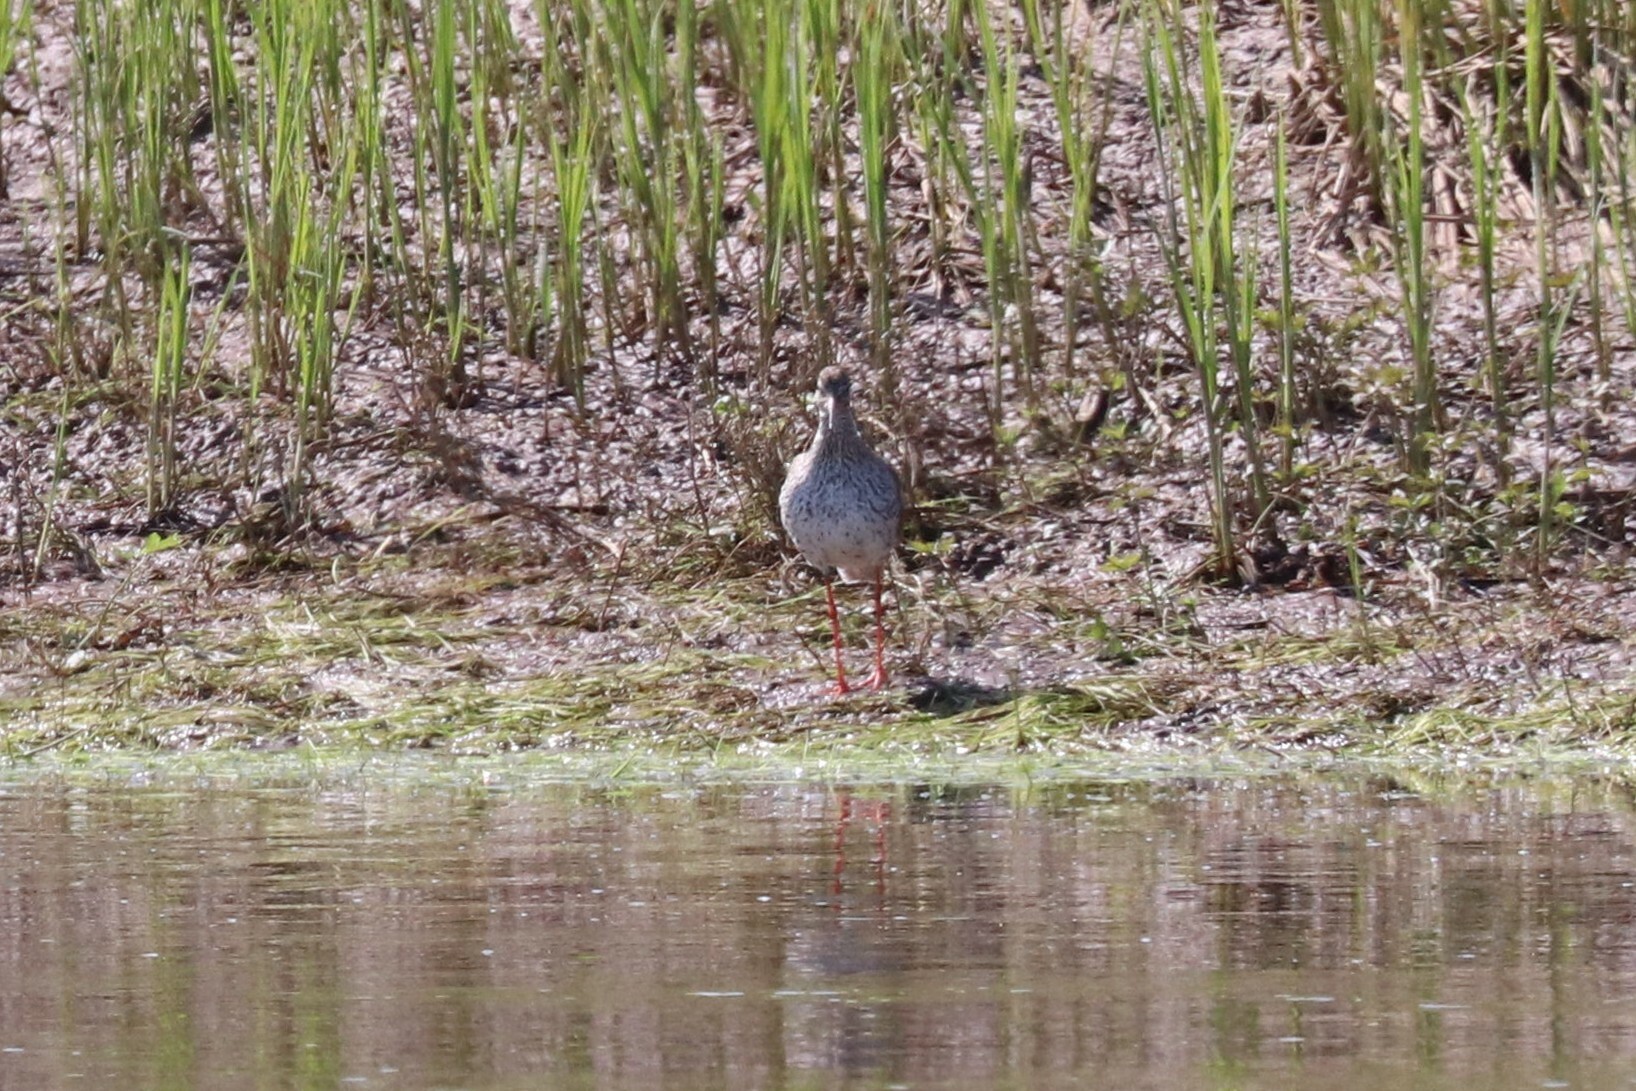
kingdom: Animalia
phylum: Chordata
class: Aves
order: Charadriiformes
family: Scolopacidae
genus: Tringa
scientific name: Tringa totanus
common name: Common redshank
